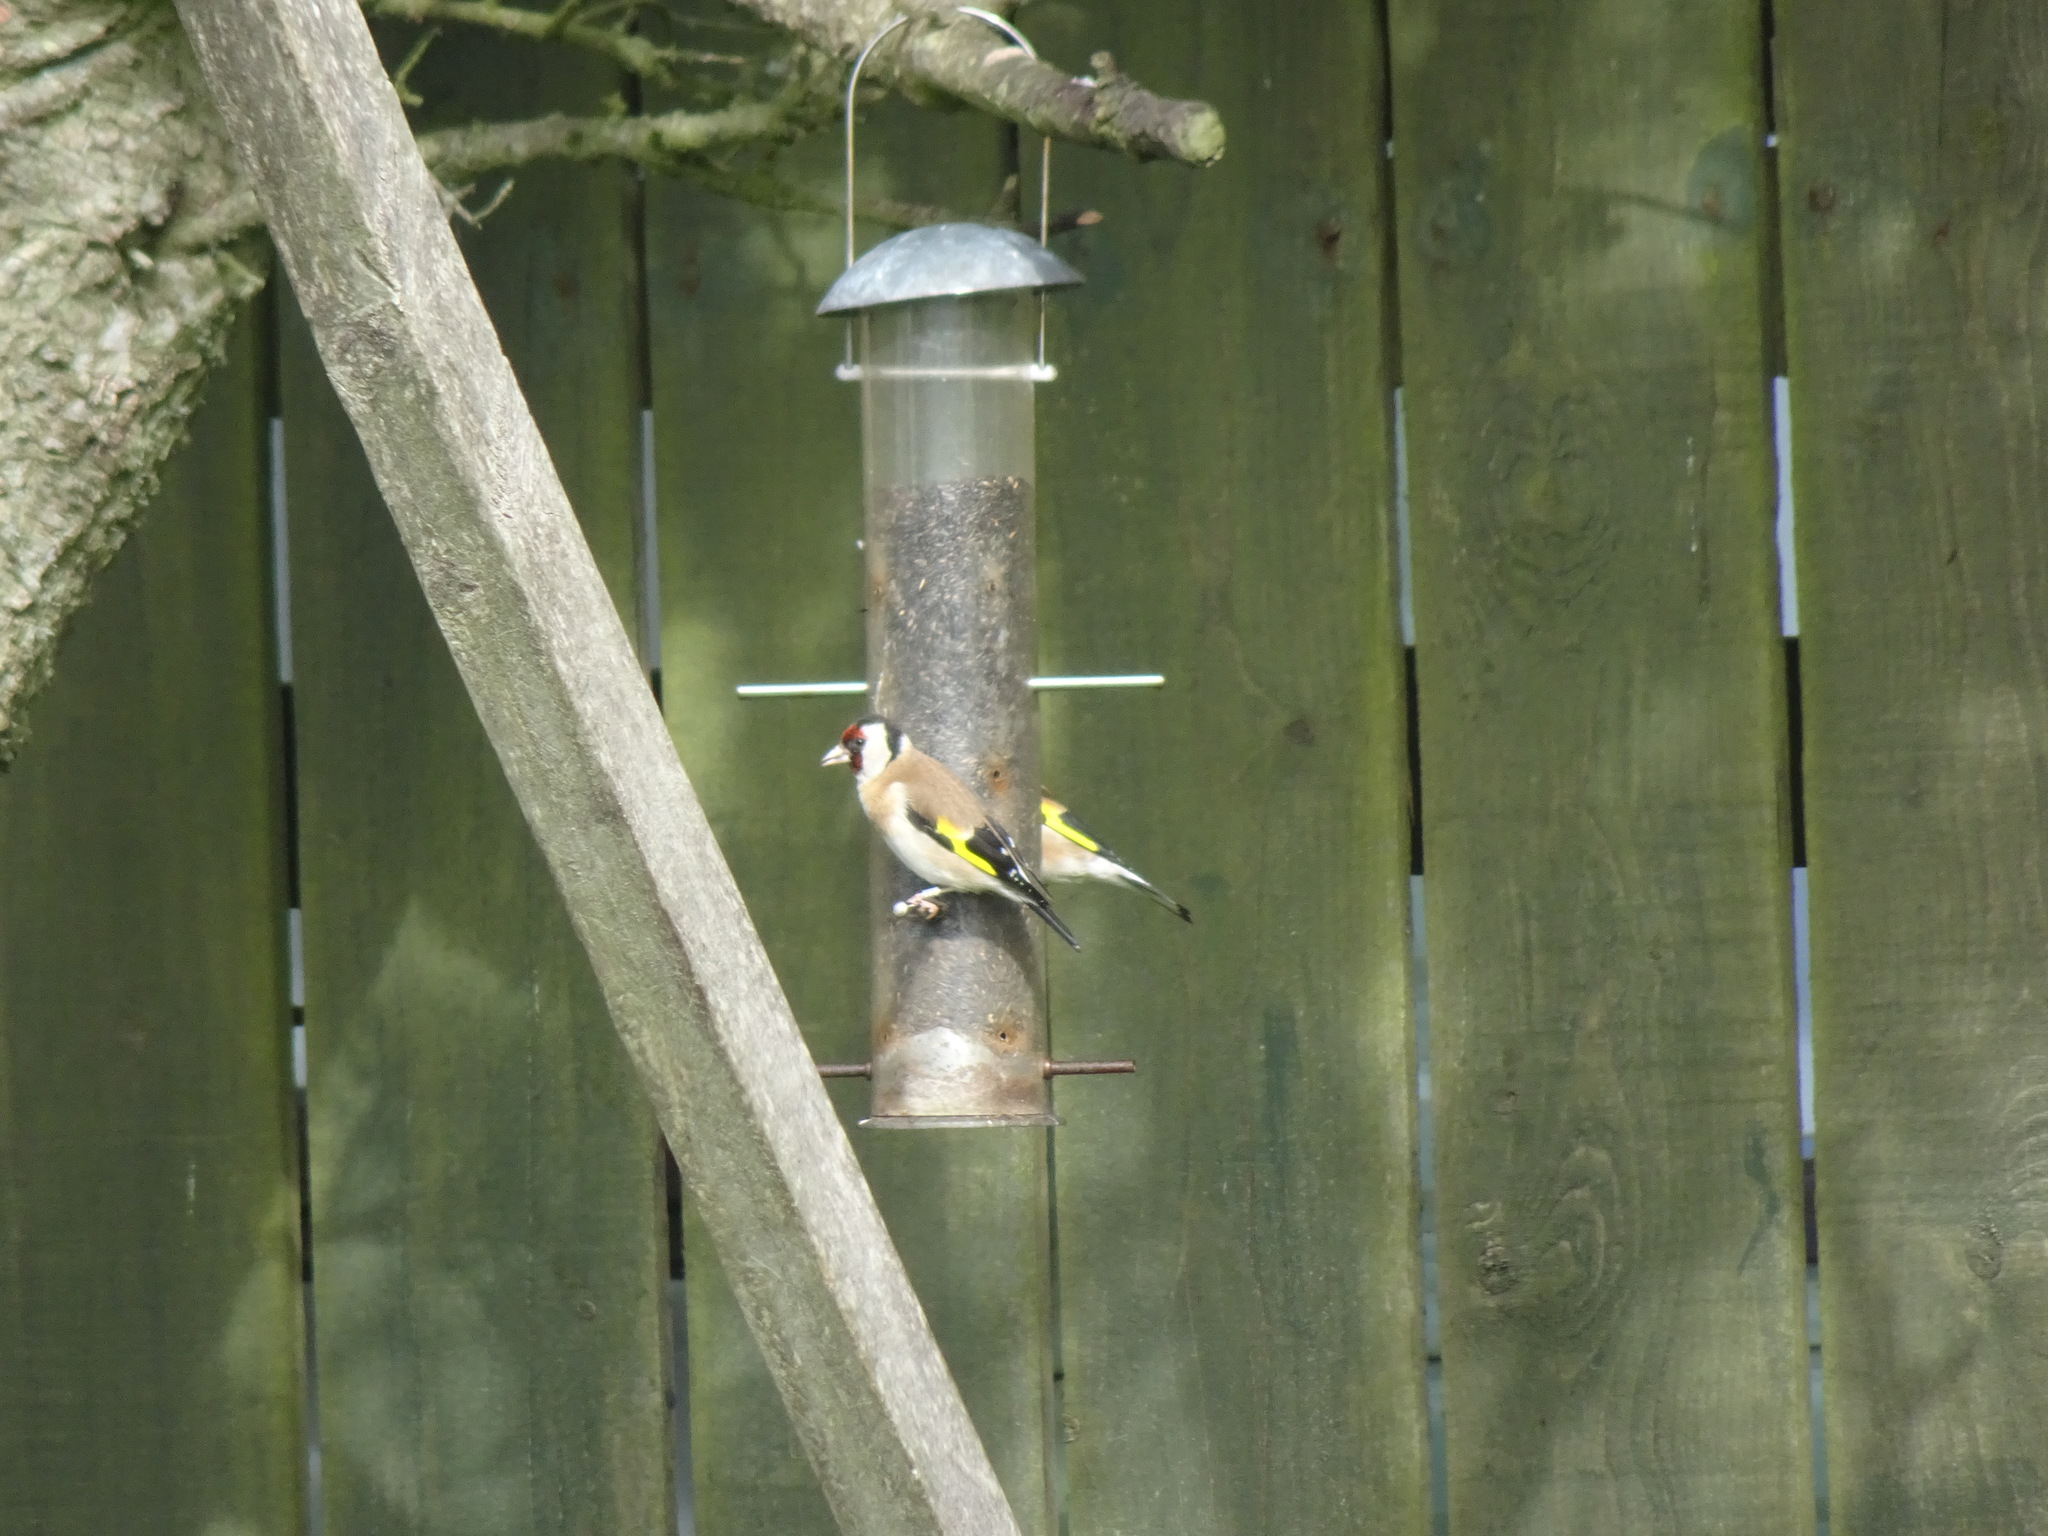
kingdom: Animalia
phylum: Chordata
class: Aves
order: Passeriformes
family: Fringillidae
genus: Carduelis
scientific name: Carduelis carduelis
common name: European goldfinch
